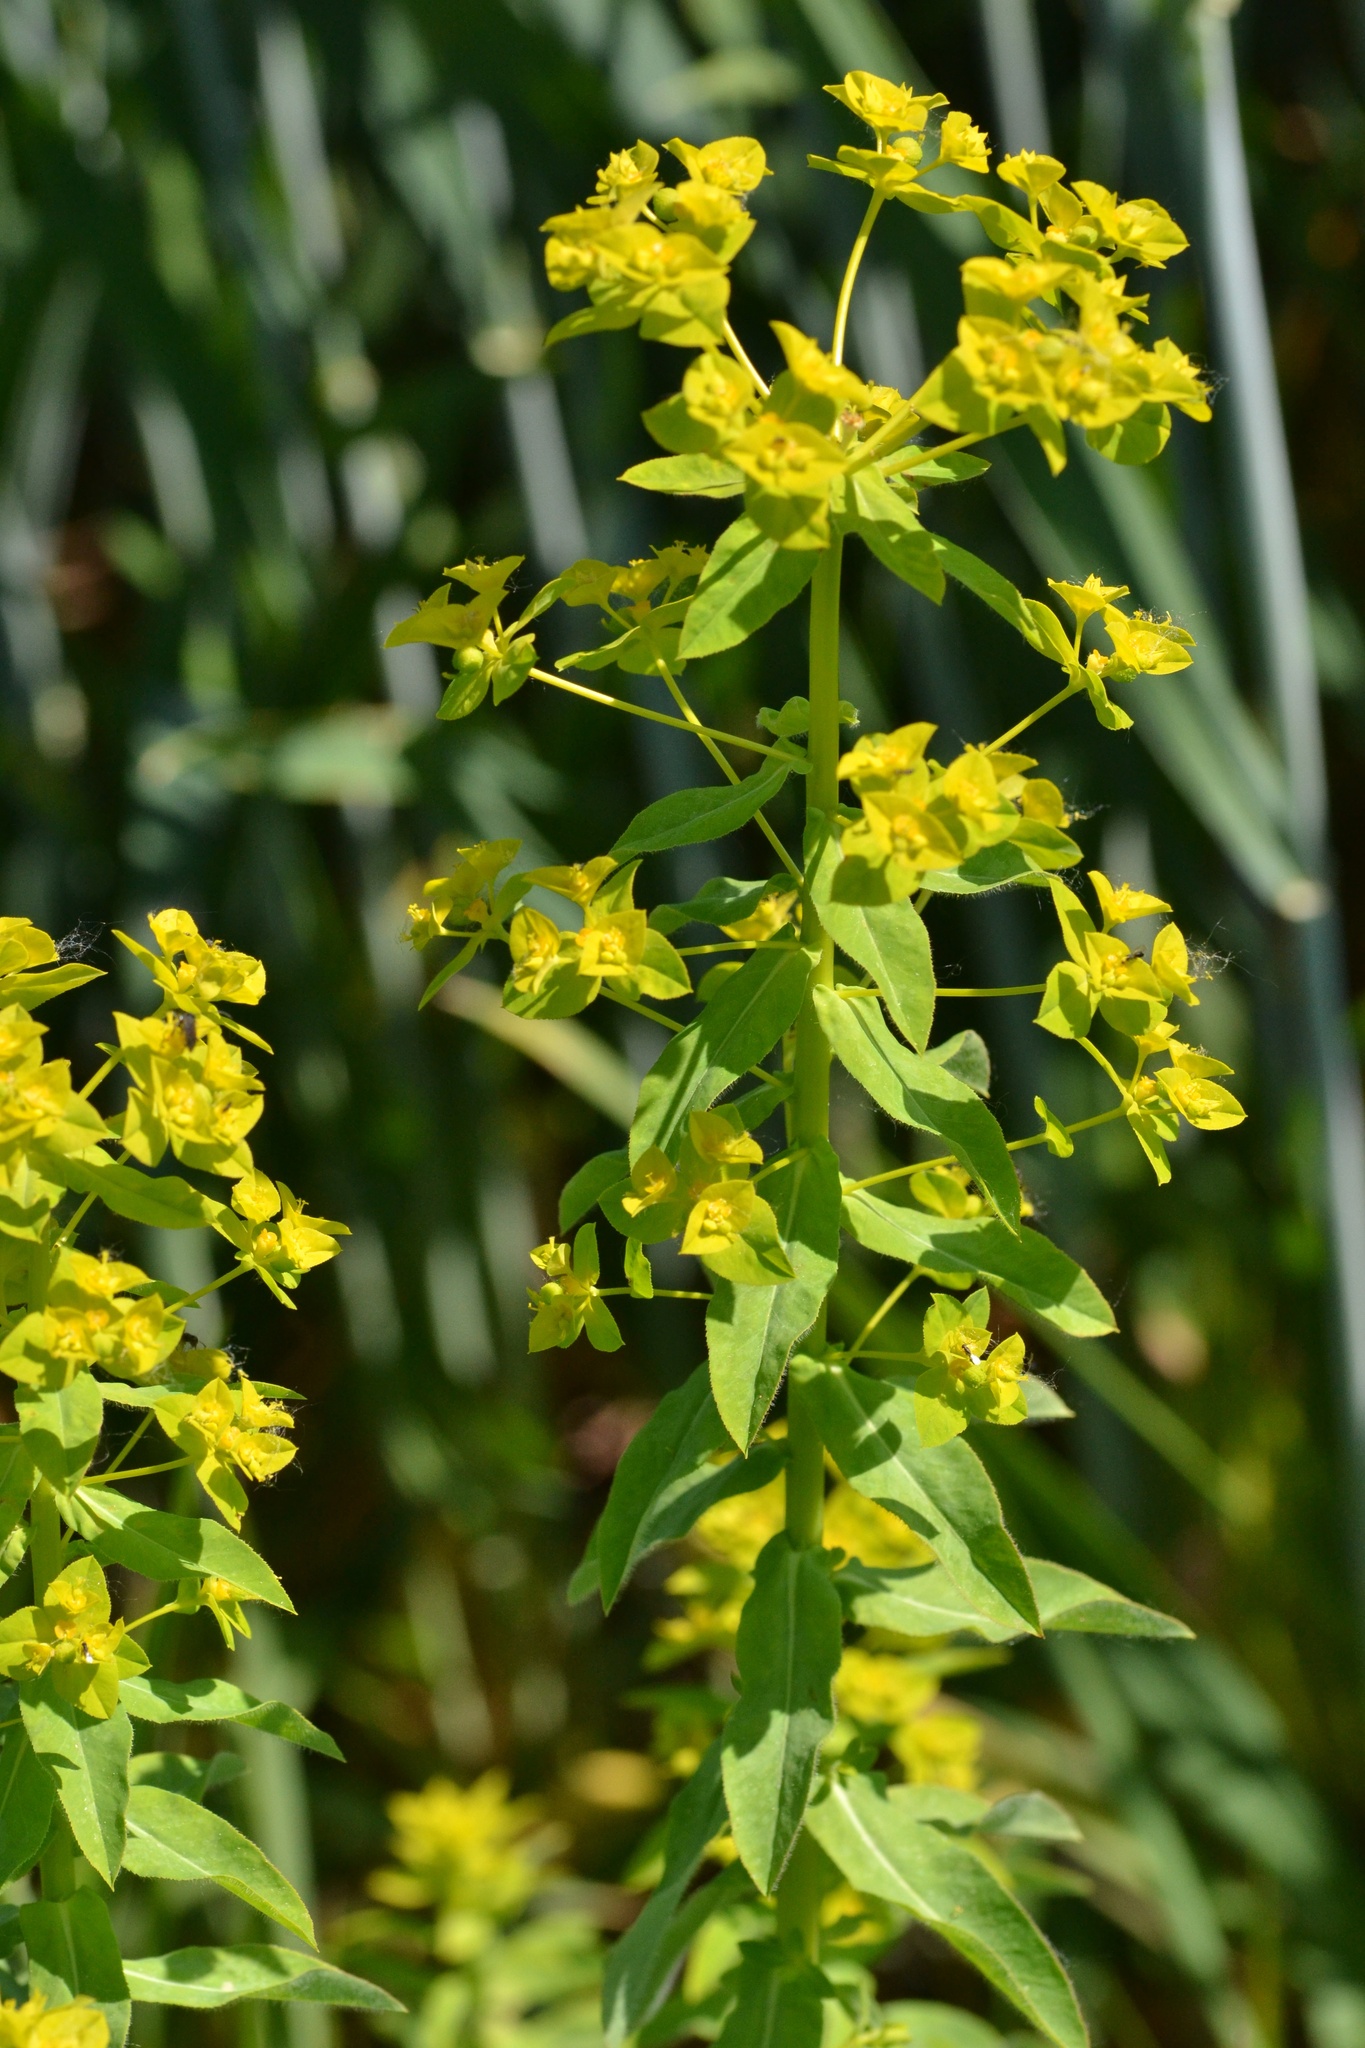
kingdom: Plantae
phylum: Tracheophyta
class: Magnoliopsida
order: Malpighiales
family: Euphorbiaceae
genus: Euphorbia
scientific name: Euphorbia platyphyllos
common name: Broad-leaved spurge
